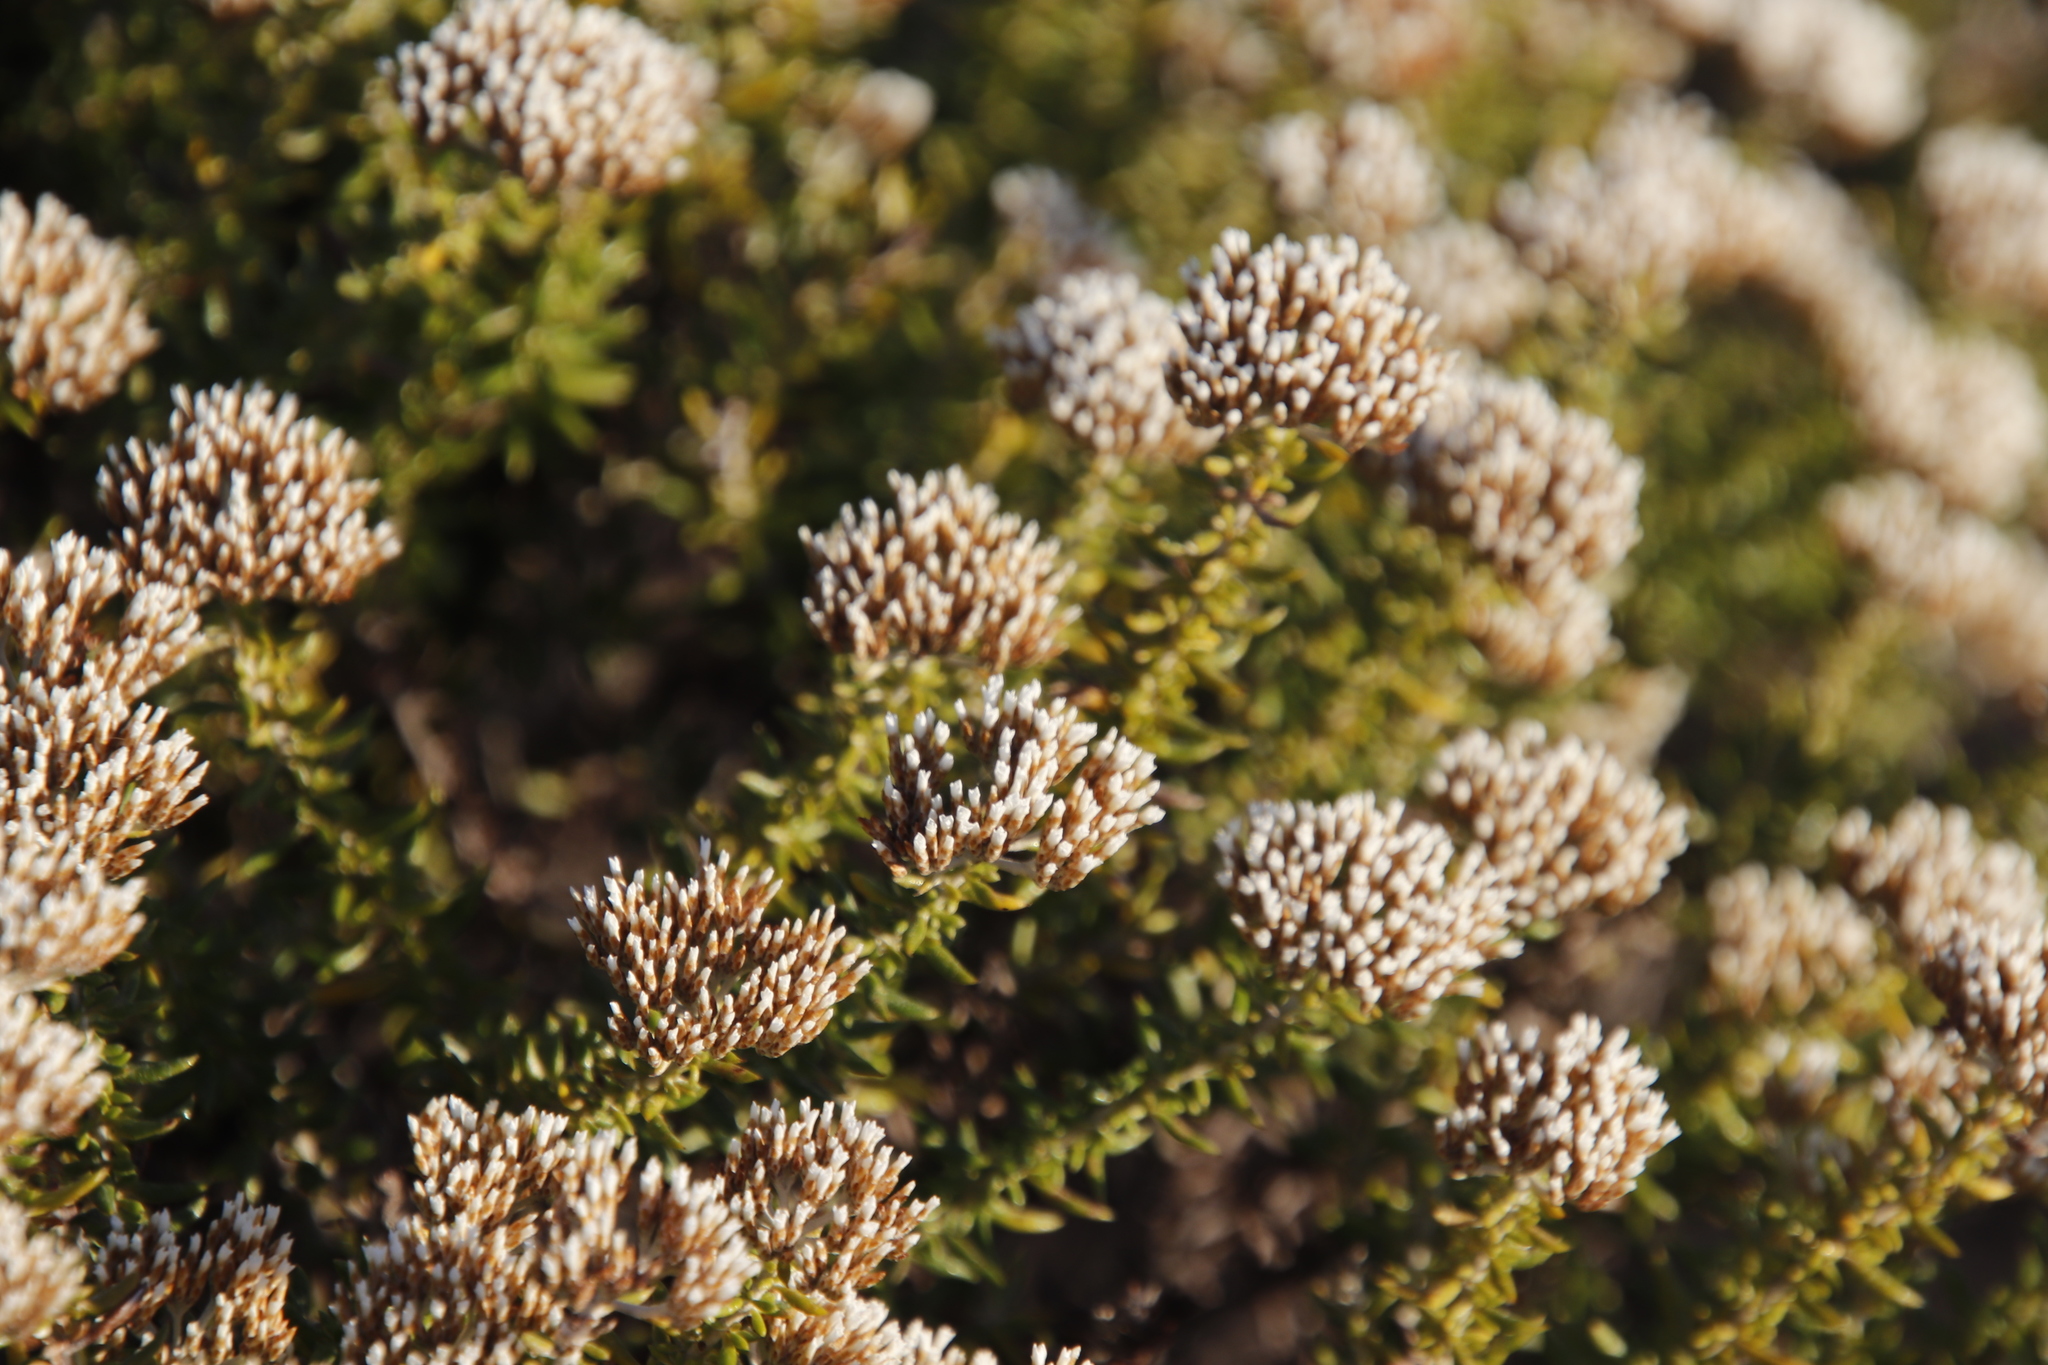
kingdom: Plantae
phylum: Tracheophyta
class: Magnoliopsida
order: Asterales
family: Asteraceae
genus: Metalasia
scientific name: Metalasia densa
